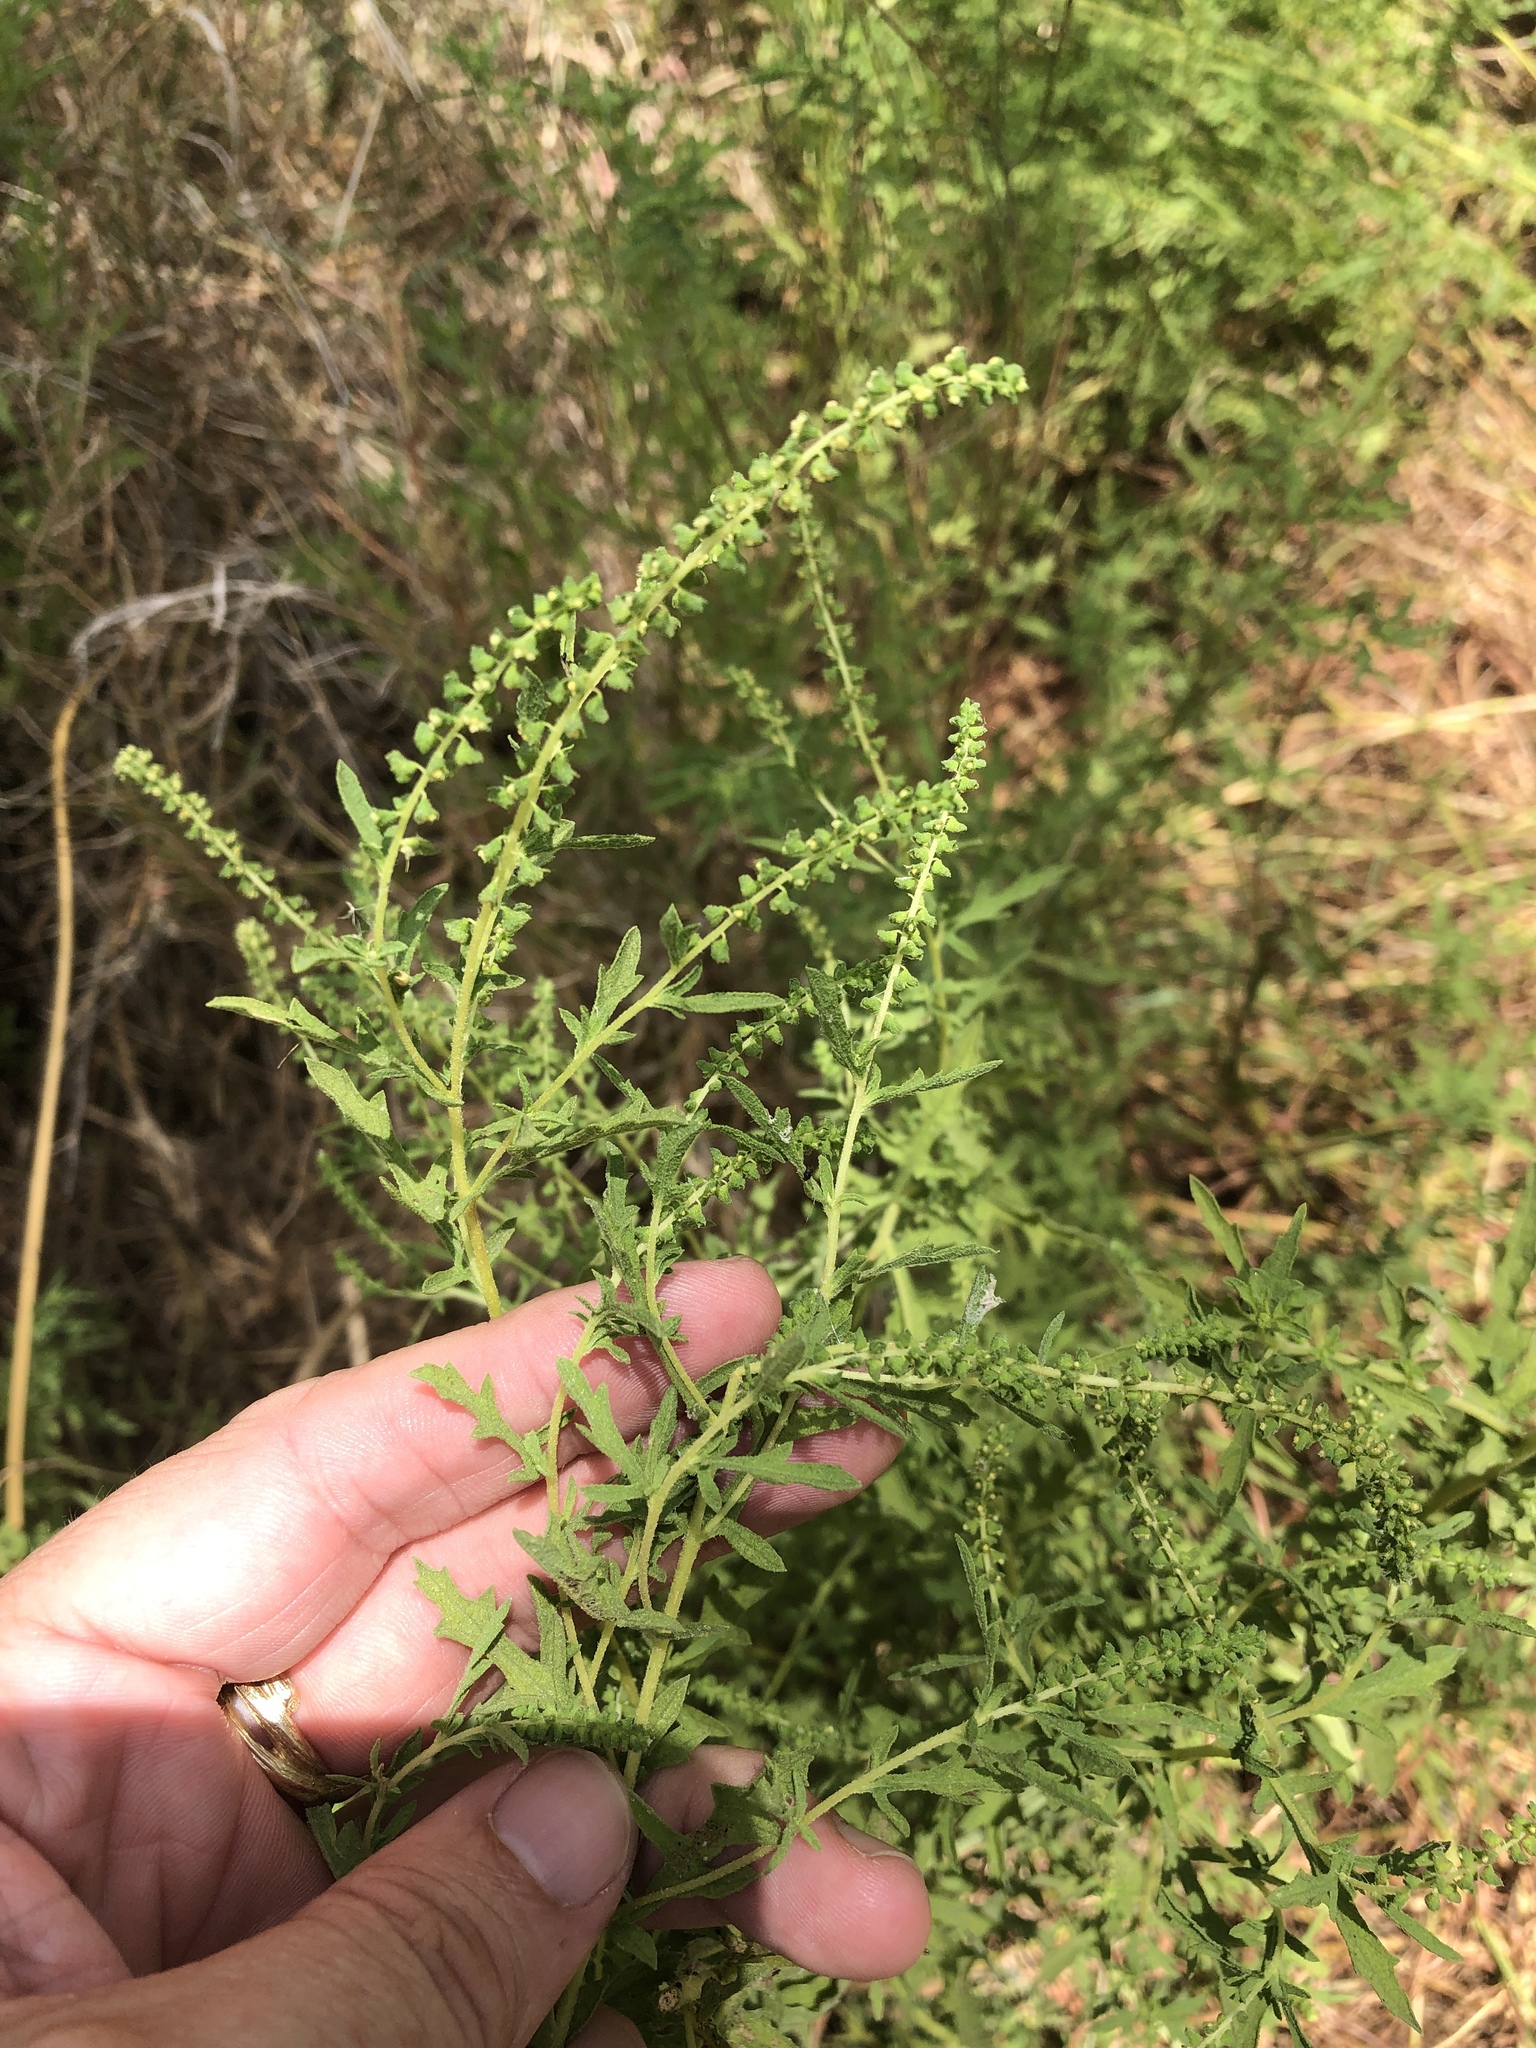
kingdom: Plantae
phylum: Tracheophyta
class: Magnoliopsida
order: Asterales
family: Asteraceae
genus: Ambrosia
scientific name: Ambrosia psilostachya
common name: Perennial ragweed
